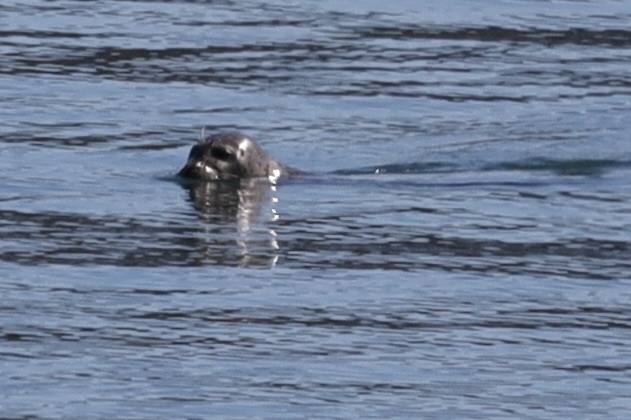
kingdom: Animalia
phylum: Chordata
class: Mammalia
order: Carnivora
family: Phocidae
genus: Phoca
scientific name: Phoca vitulina
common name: Harbor seal
